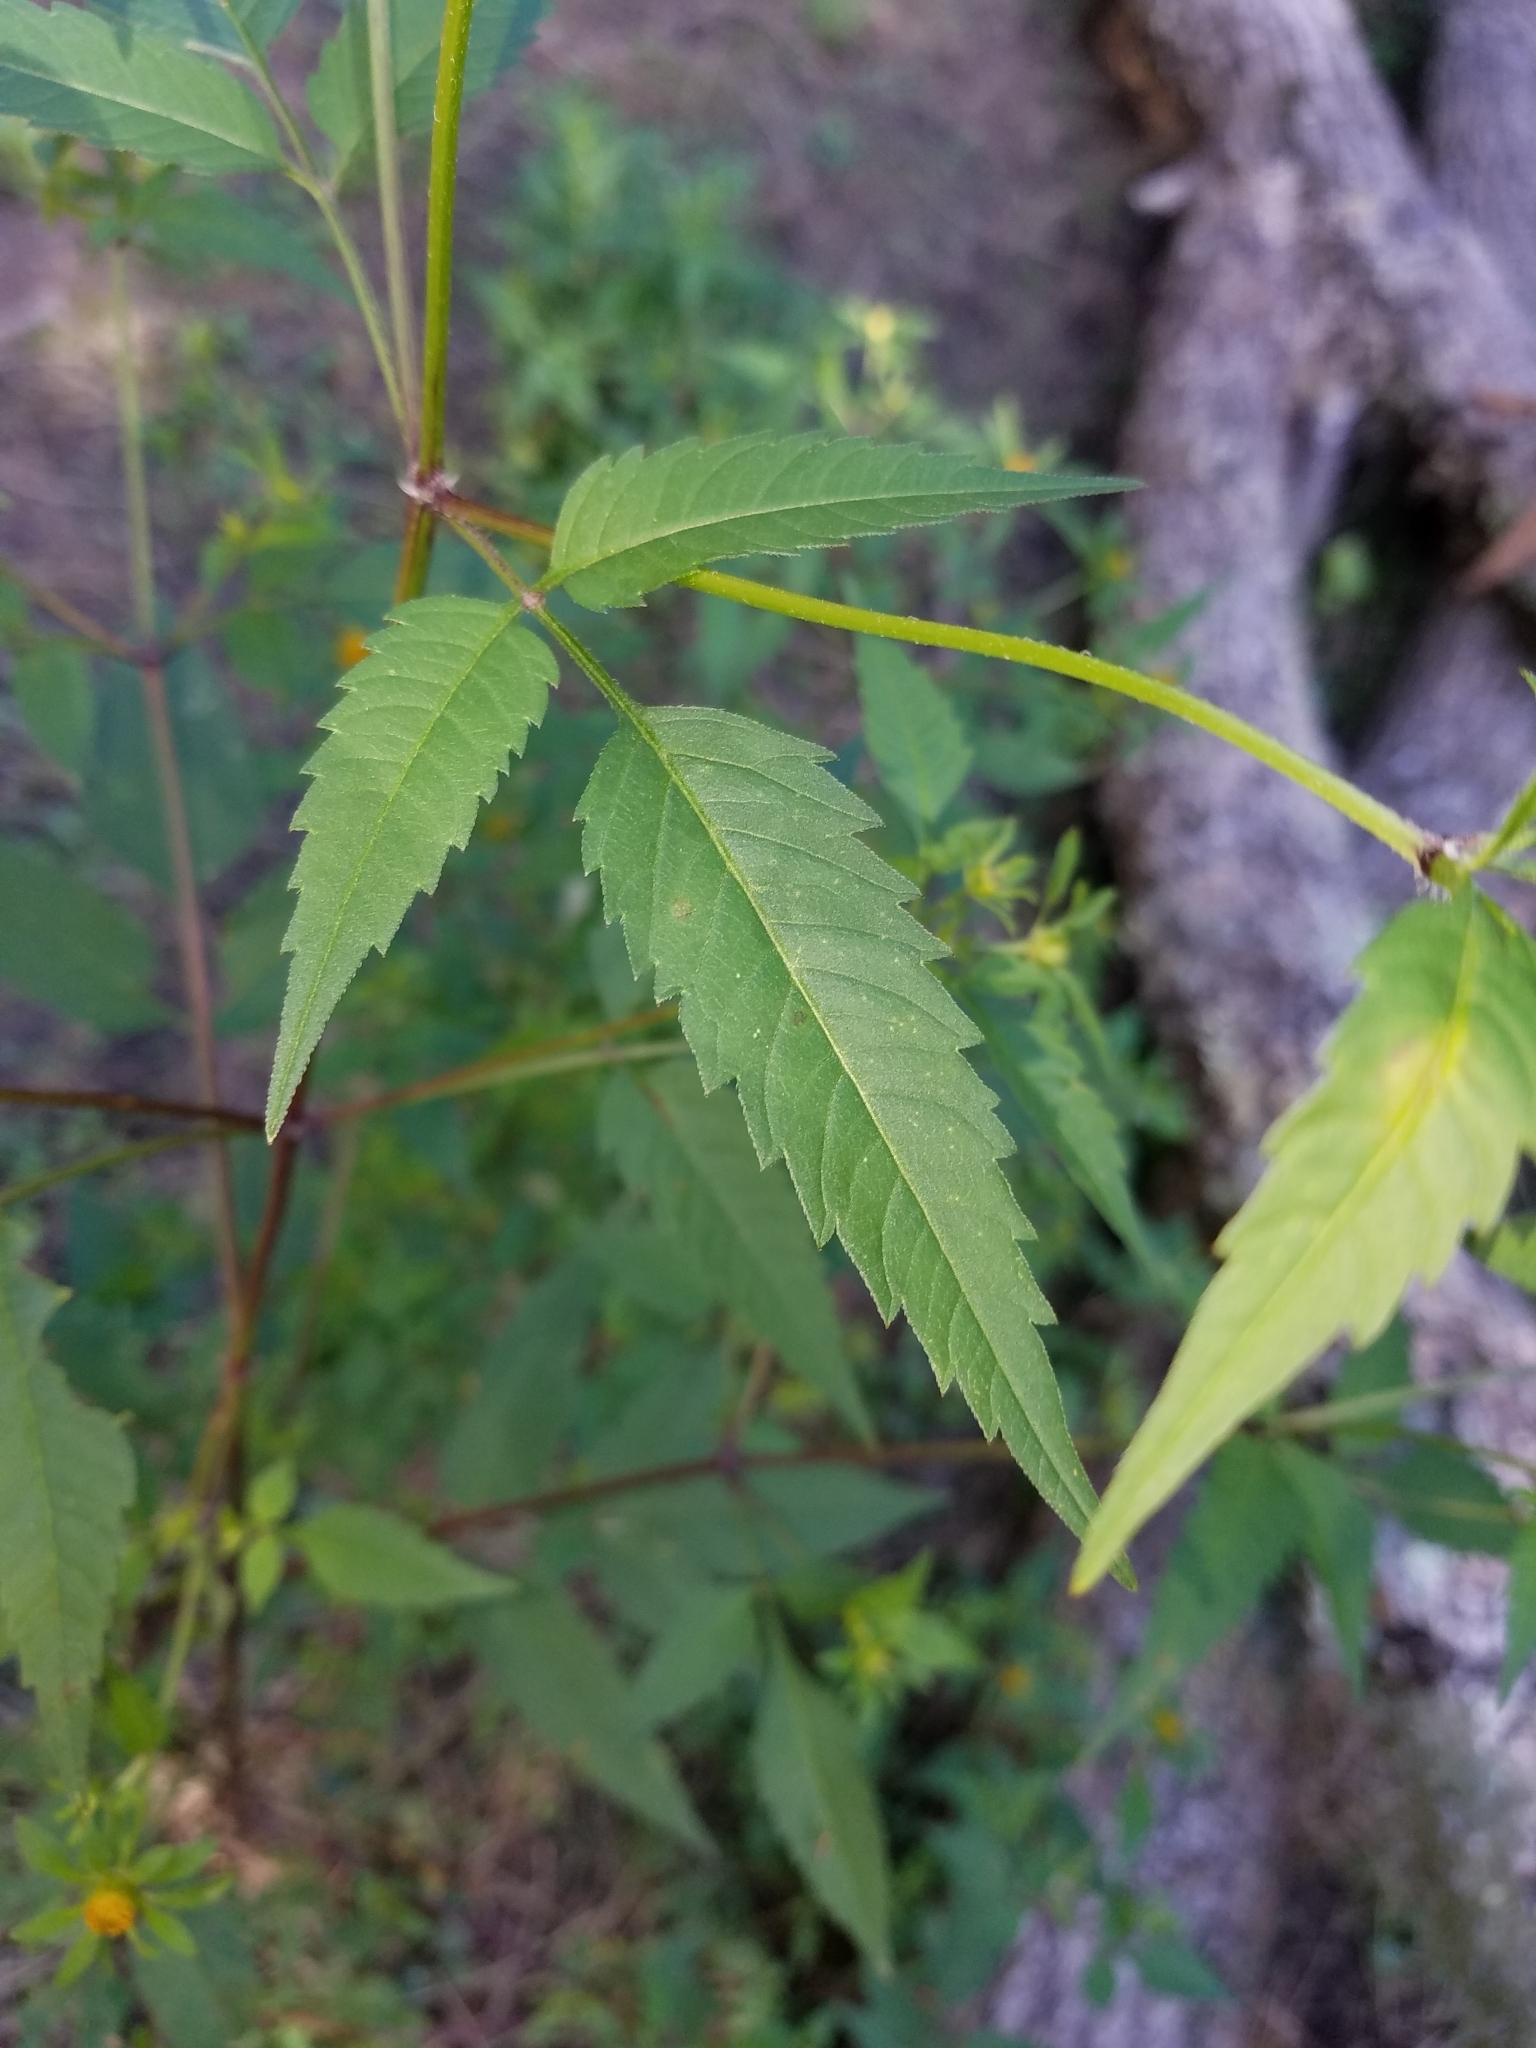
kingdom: Plantae
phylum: Tracheophyta
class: Magnoliopsida
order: Asterales
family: Asteraceae
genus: Bidens
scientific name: Bidens frondosa
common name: Beggarticks
